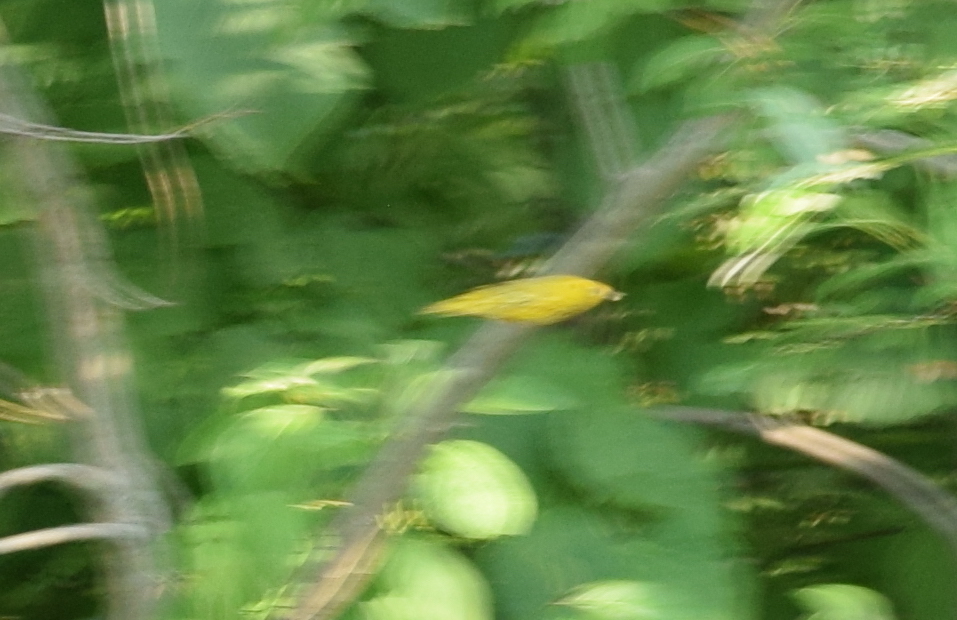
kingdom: Animalia
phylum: Chordata
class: Aves
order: Passeriformes
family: Parulidae
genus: Setophaga
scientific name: Setophaga petechia
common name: Yellow warbler
